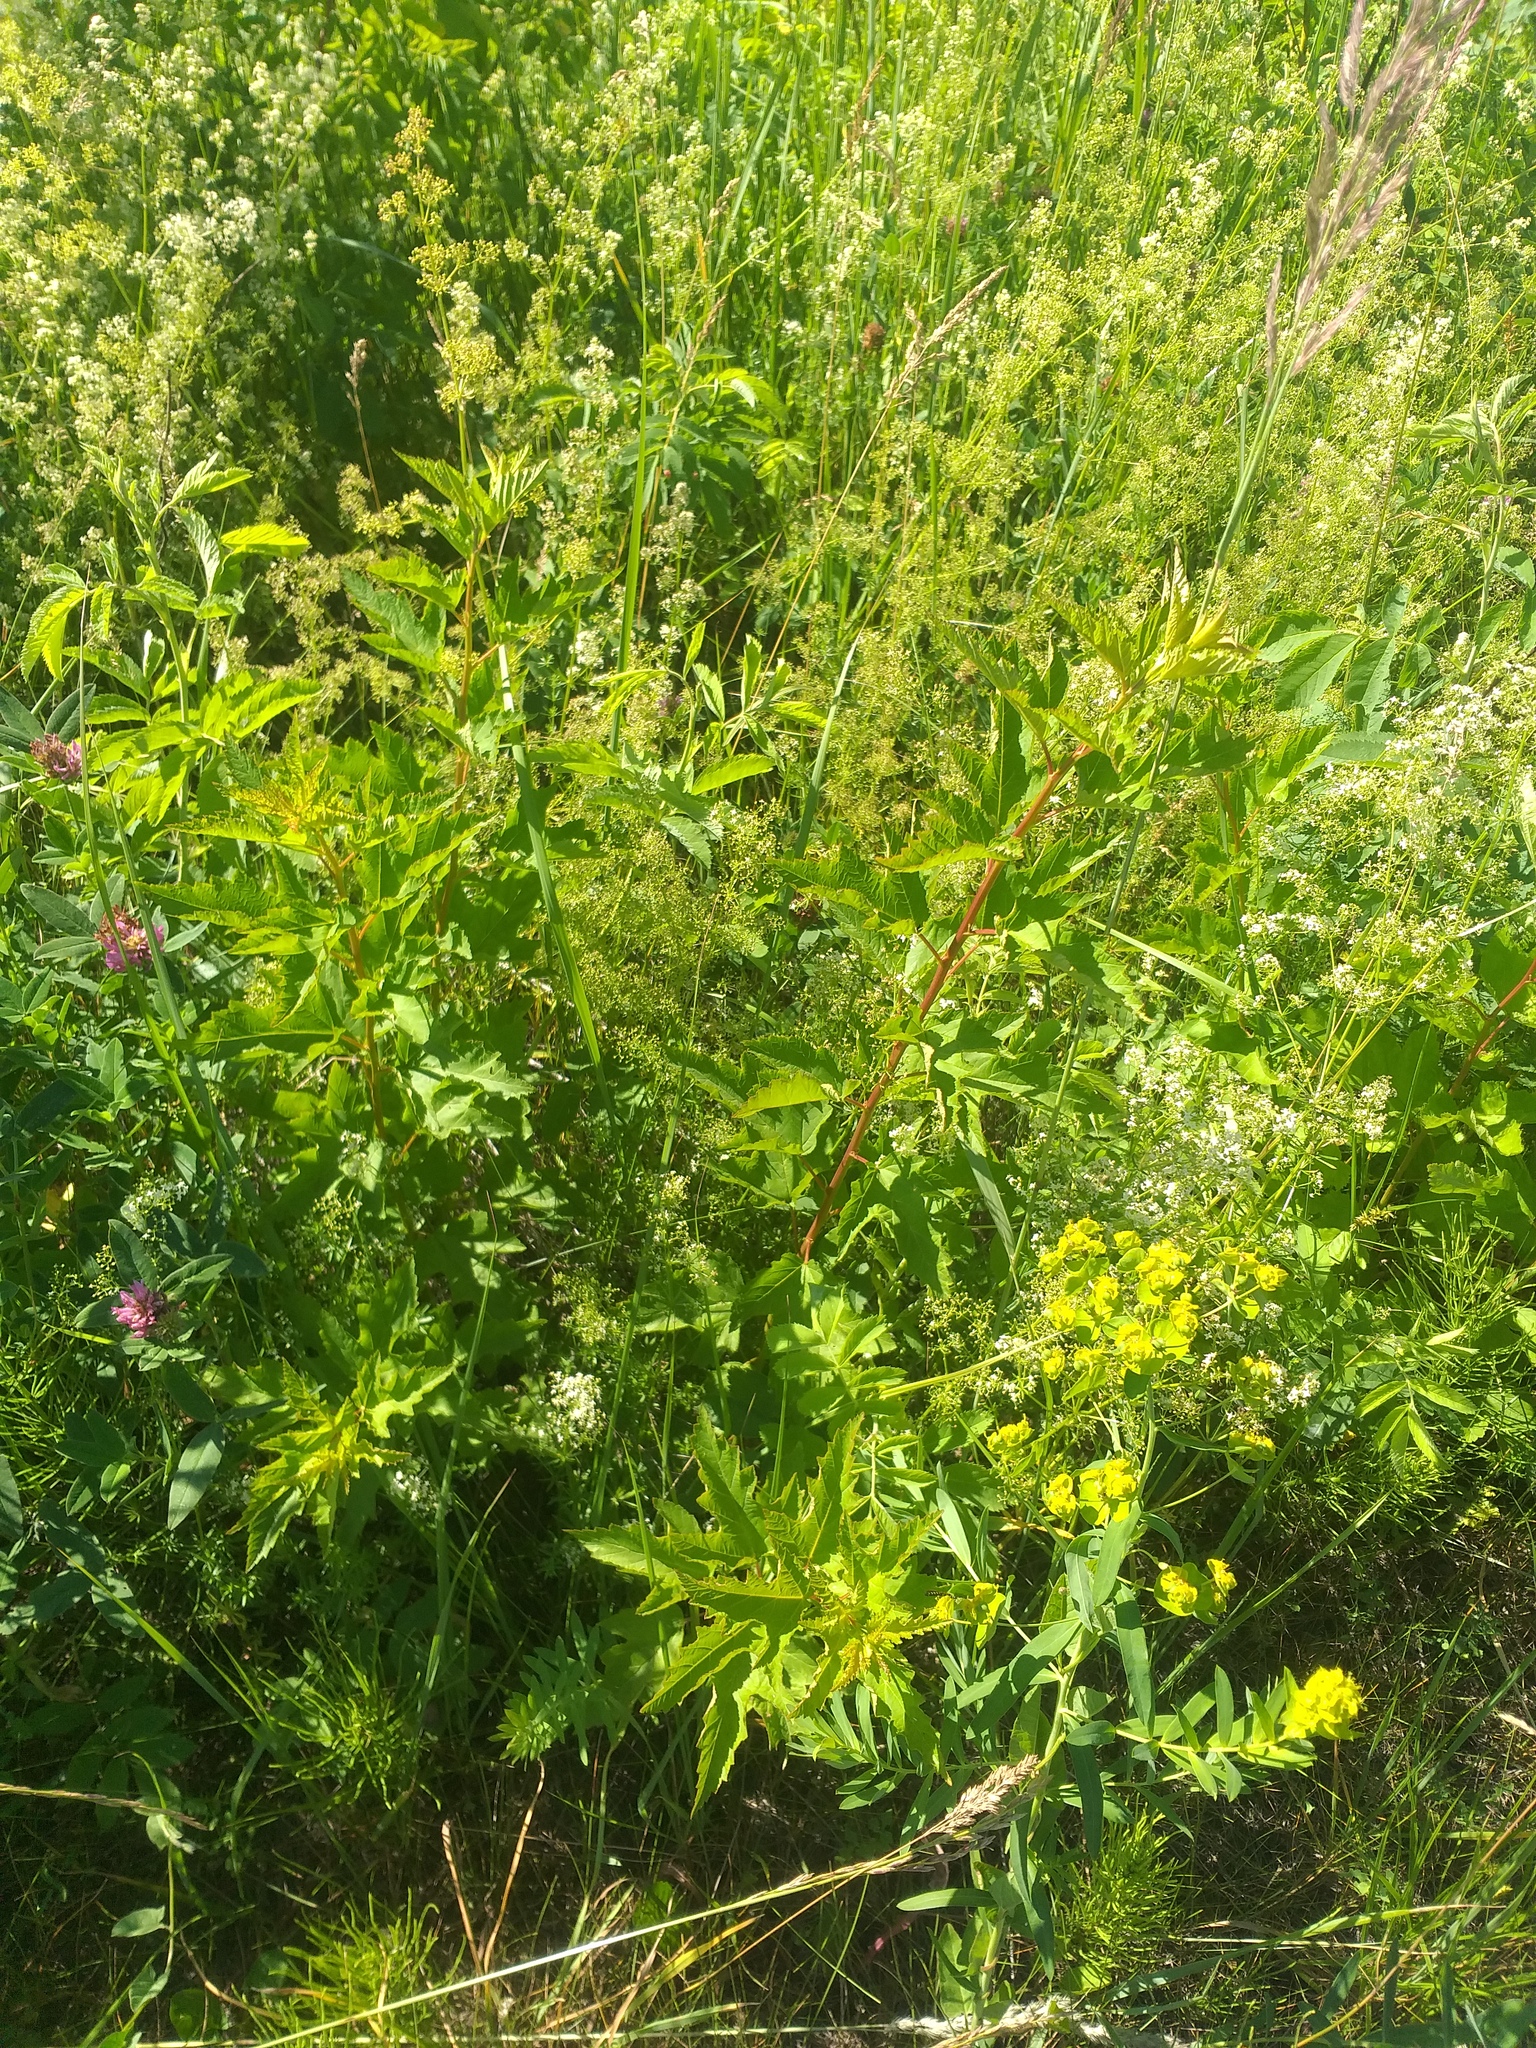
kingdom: Plantae
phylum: Tracheophyta
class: Magnoliopsida
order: Rosales
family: Rosaceae
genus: Physocarpus
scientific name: Physocarpus opulifolius
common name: Ninebark
